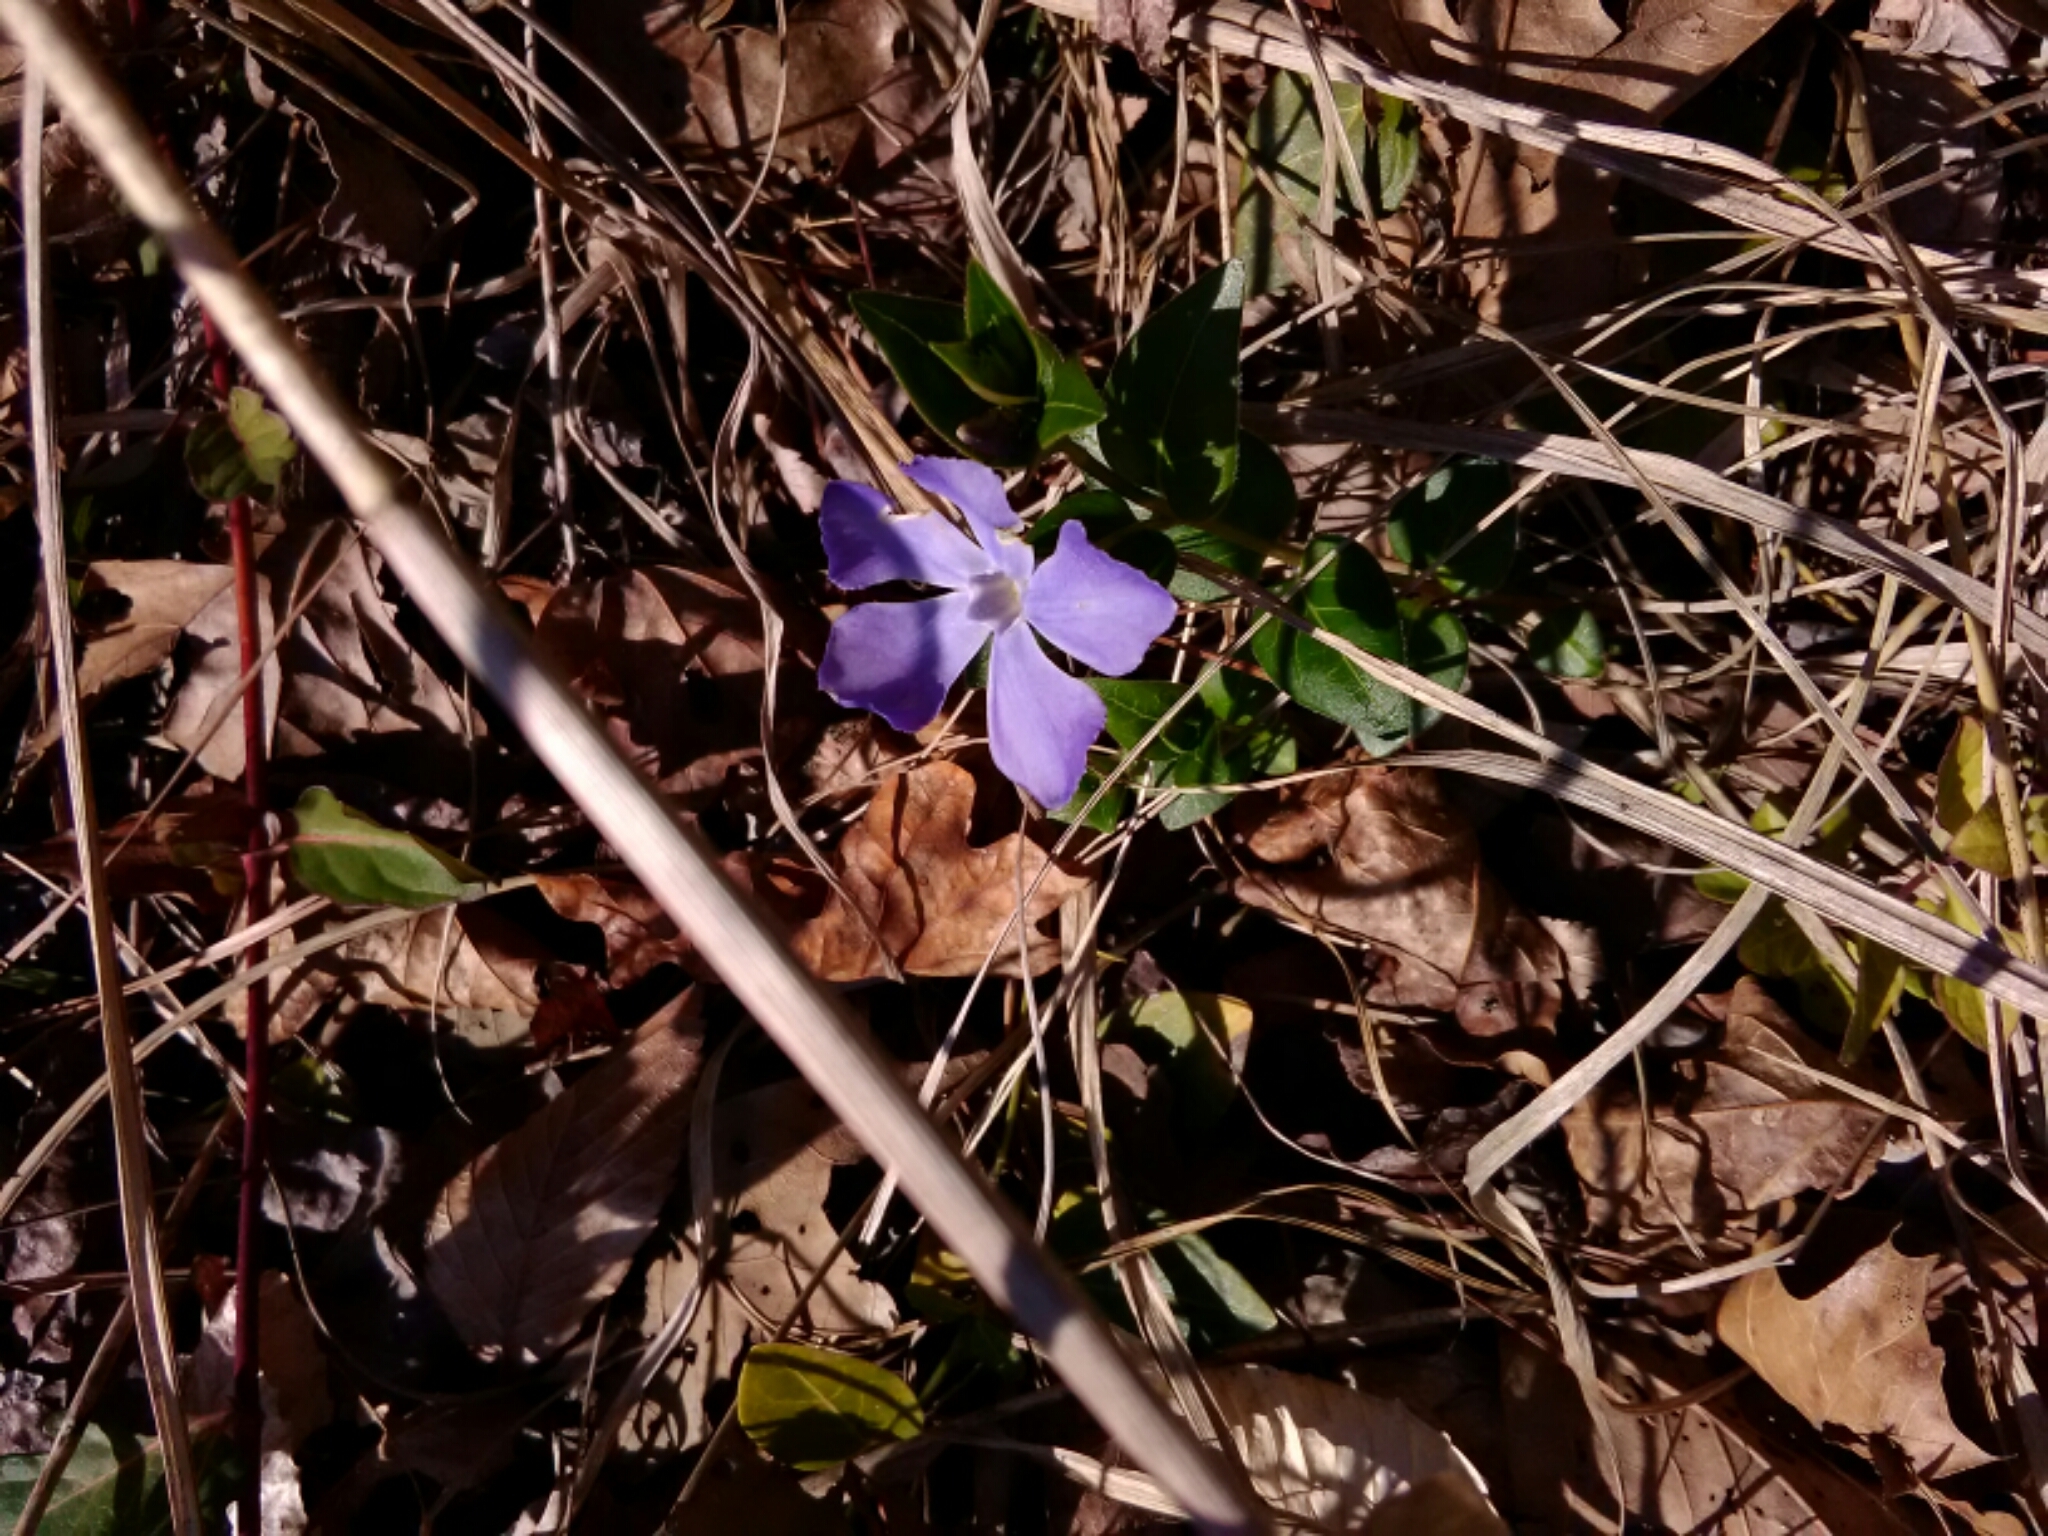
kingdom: Plantae
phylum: Tracheophyta
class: Magnoliopsida
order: Gentianales
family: Apocynaceae
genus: Vinca
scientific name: Vinca major
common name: Greater periwinkle
